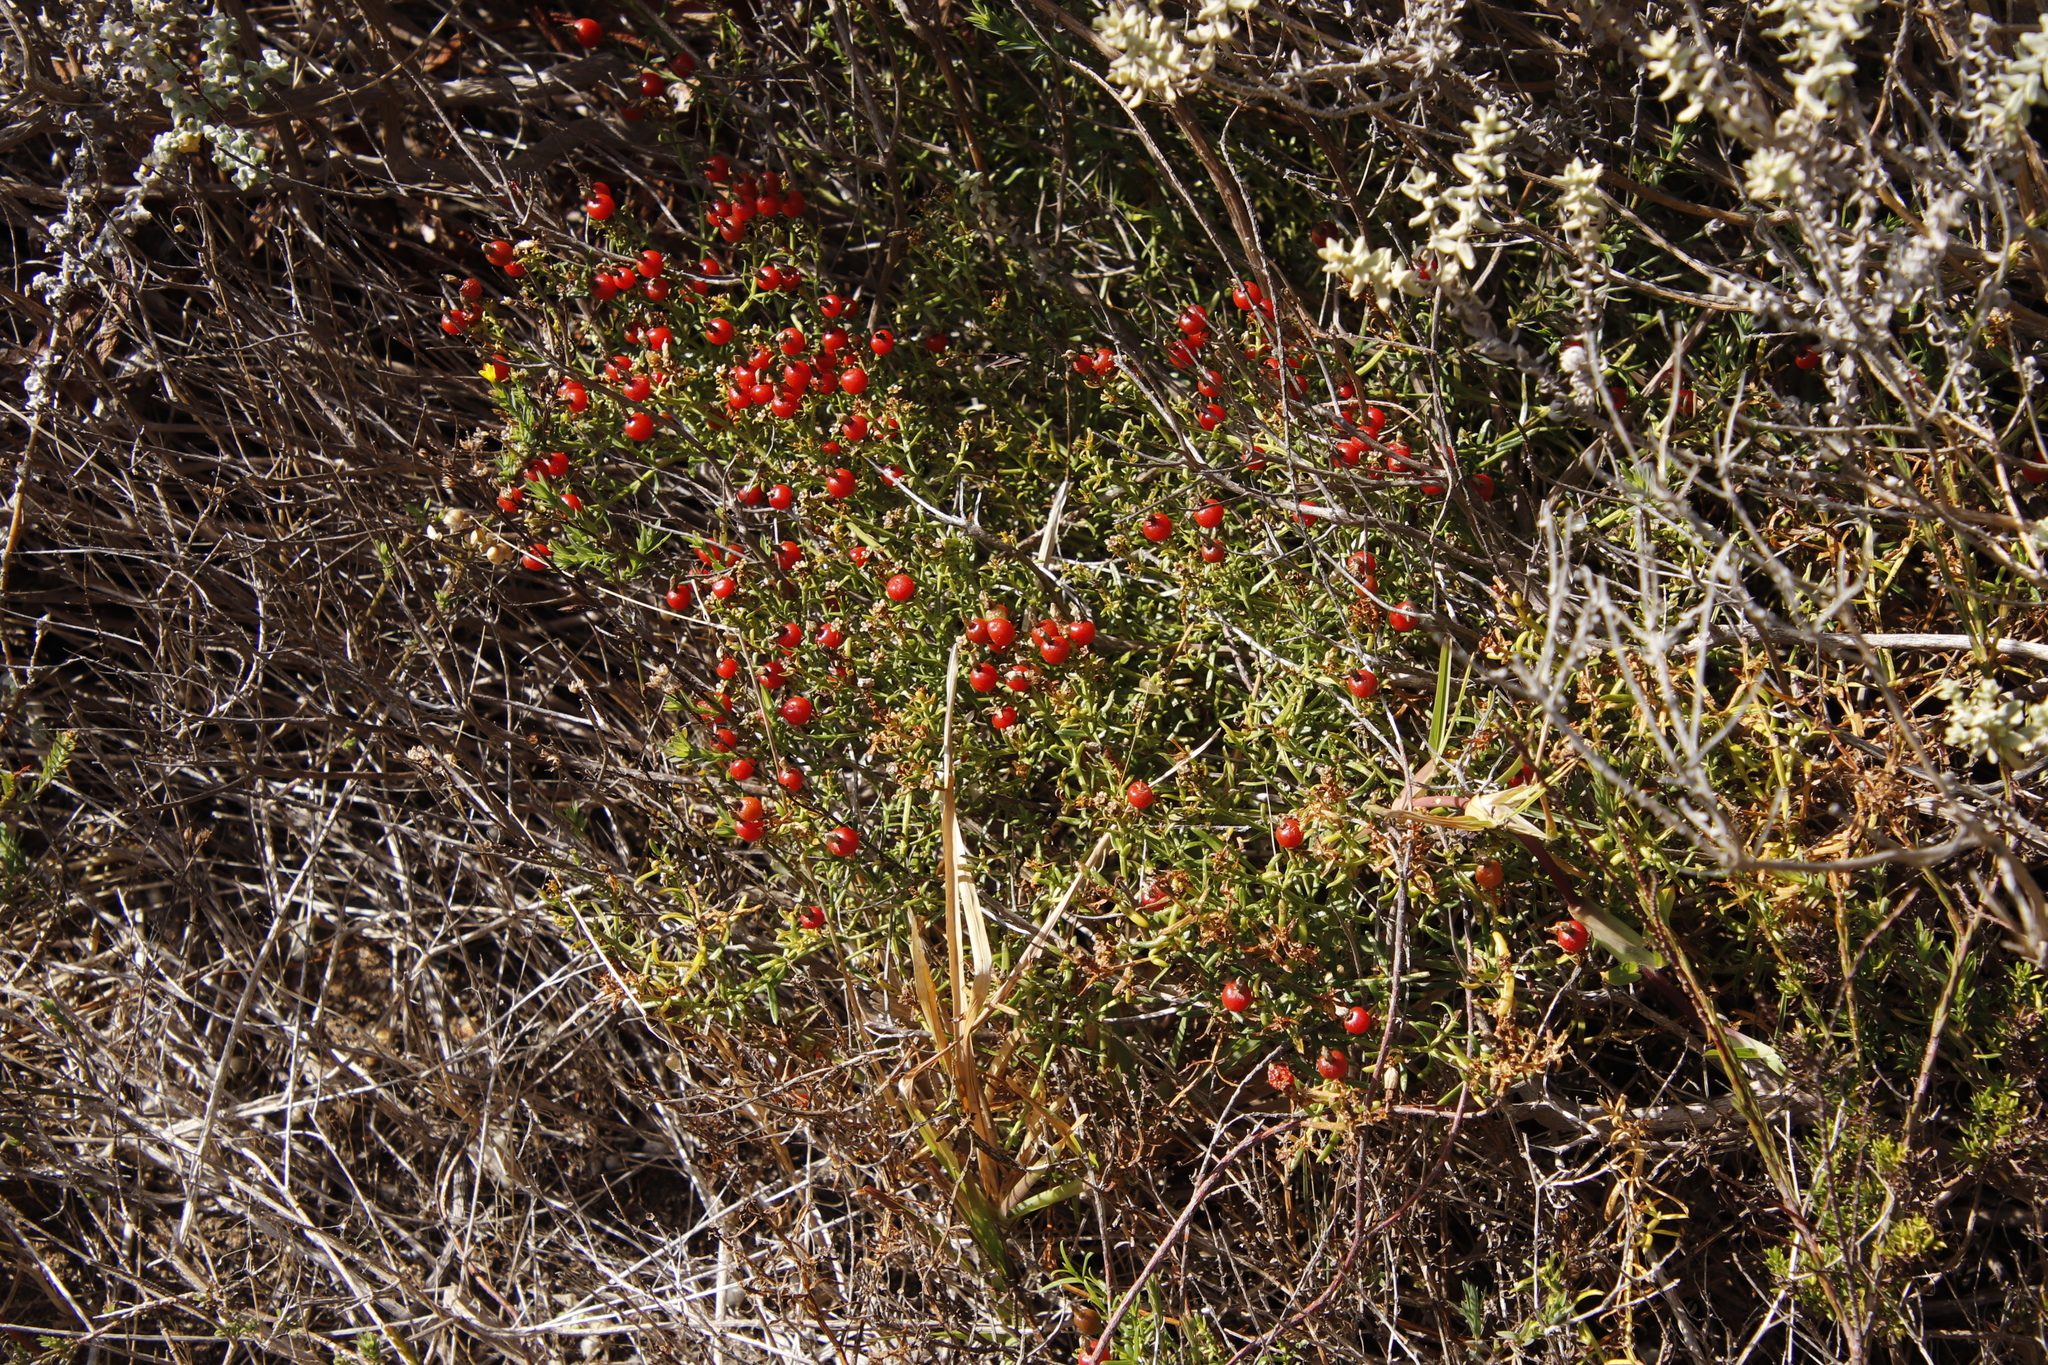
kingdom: Plantae
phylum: Tracheophyta
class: Magnoliopsida
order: Gentianales
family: Gentianaceae
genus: Chironia
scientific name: Chironia baccifera
